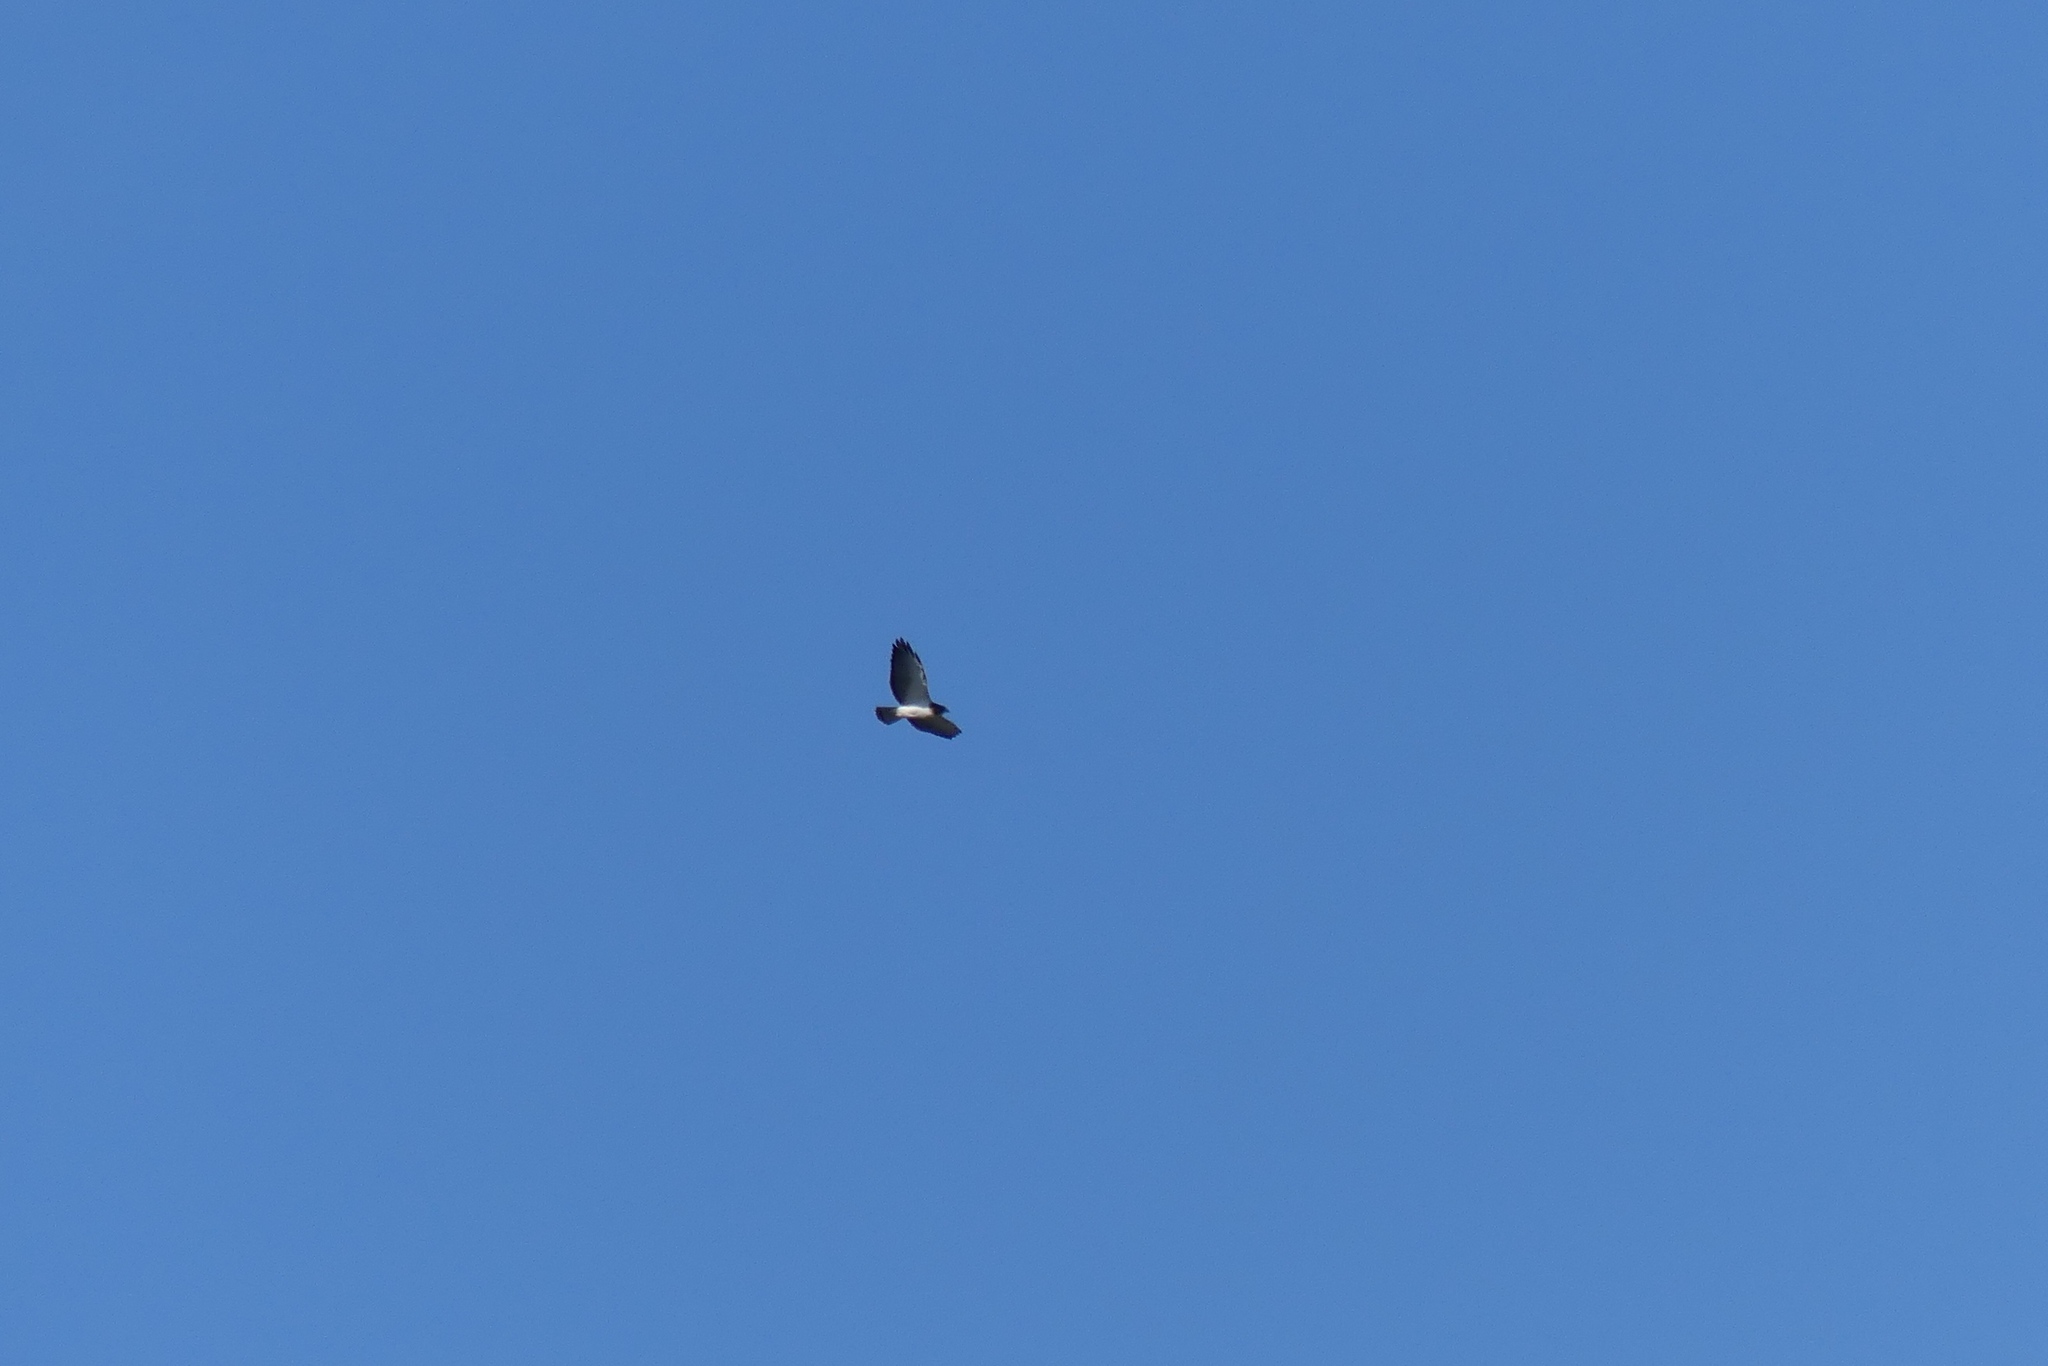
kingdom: Animalia
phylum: Chordata
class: Aves
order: Accipitriformes
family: Accipitridae
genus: Buteo
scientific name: Buteo brachyurus
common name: Short-tailed hawk
